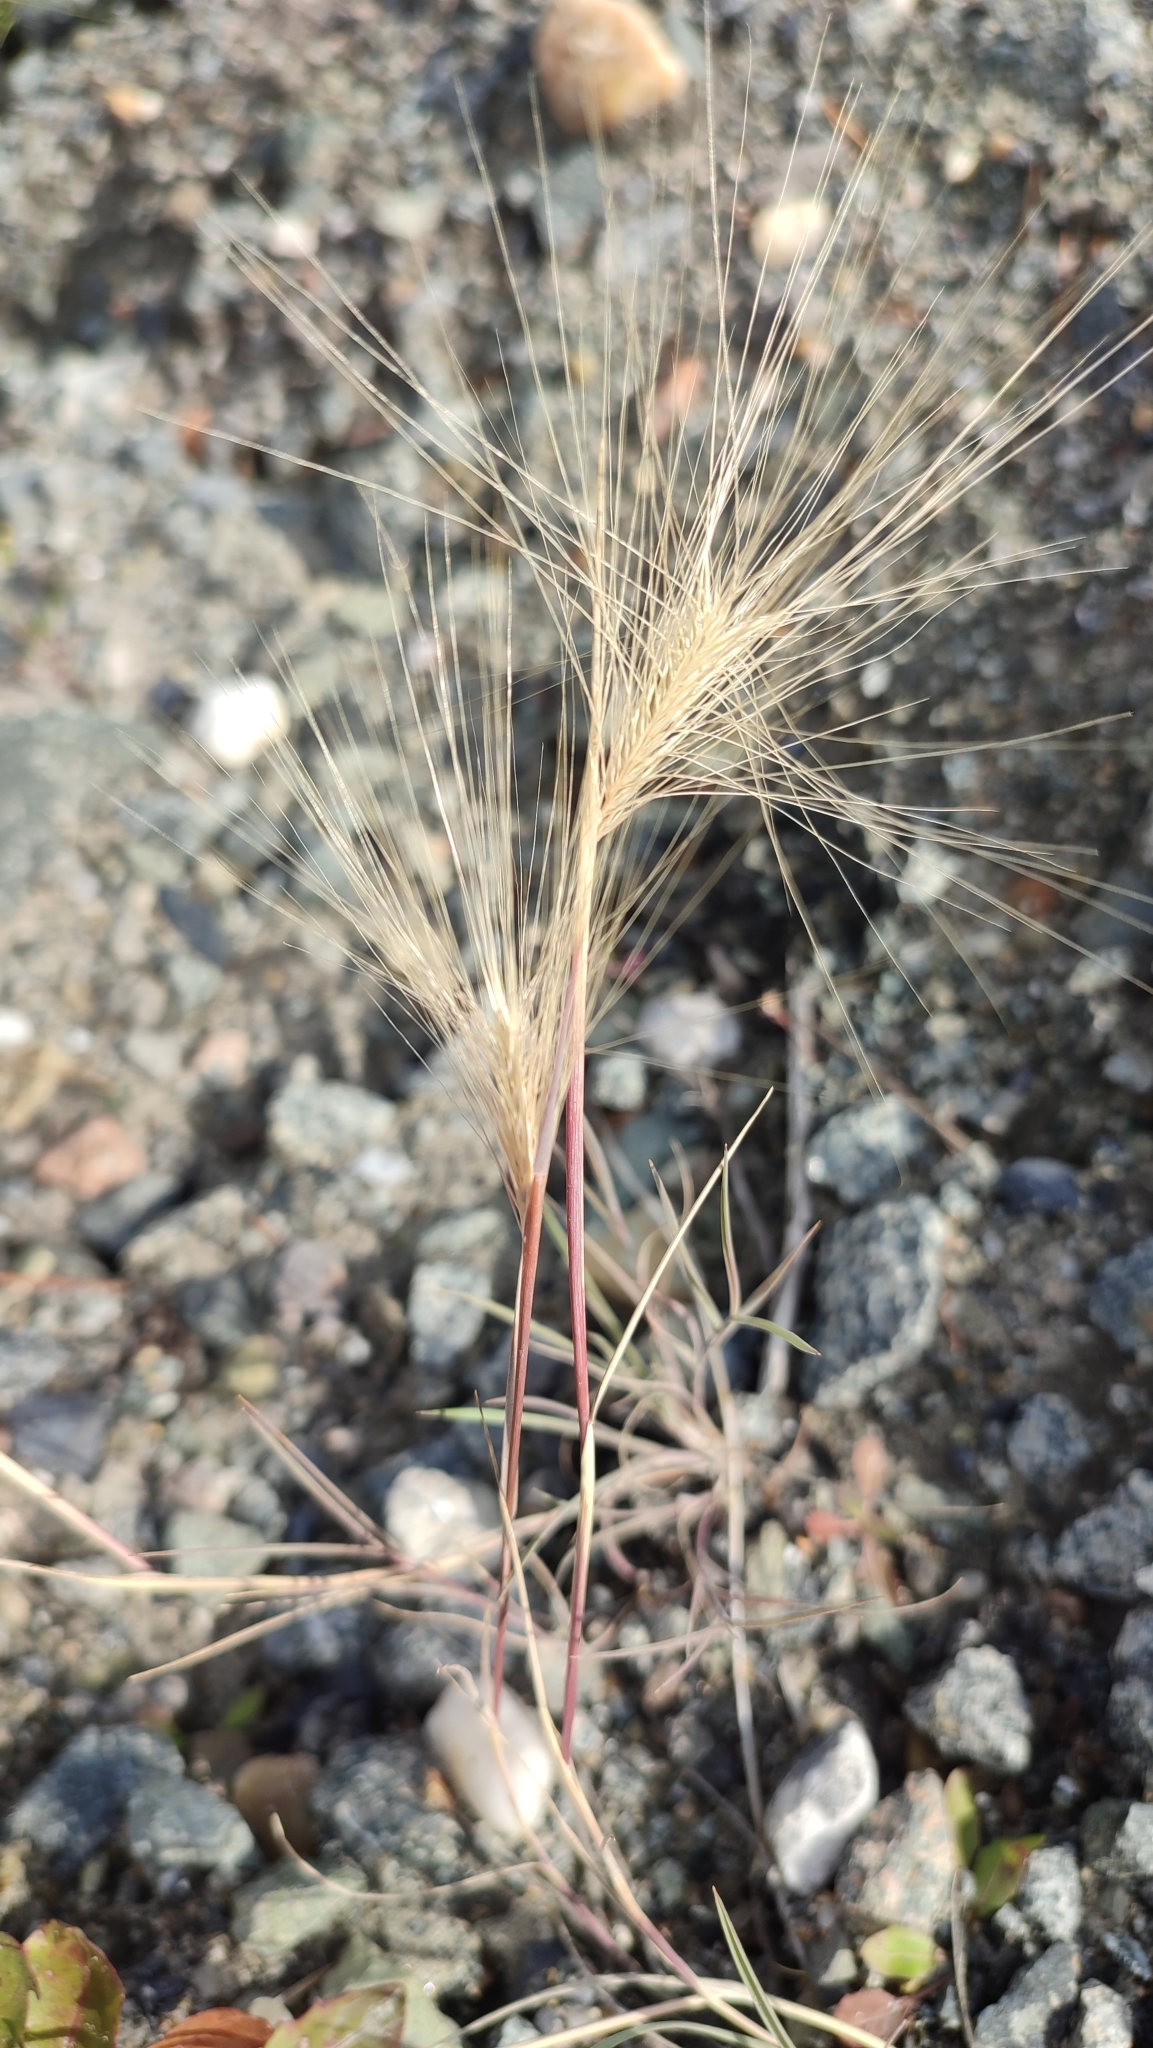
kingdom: Plantae
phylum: Tracheophyta
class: Liliopsida
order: Poales
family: Poaceae
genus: Hordeum
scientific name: Hordeum jubatum
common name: Foxtail barley
